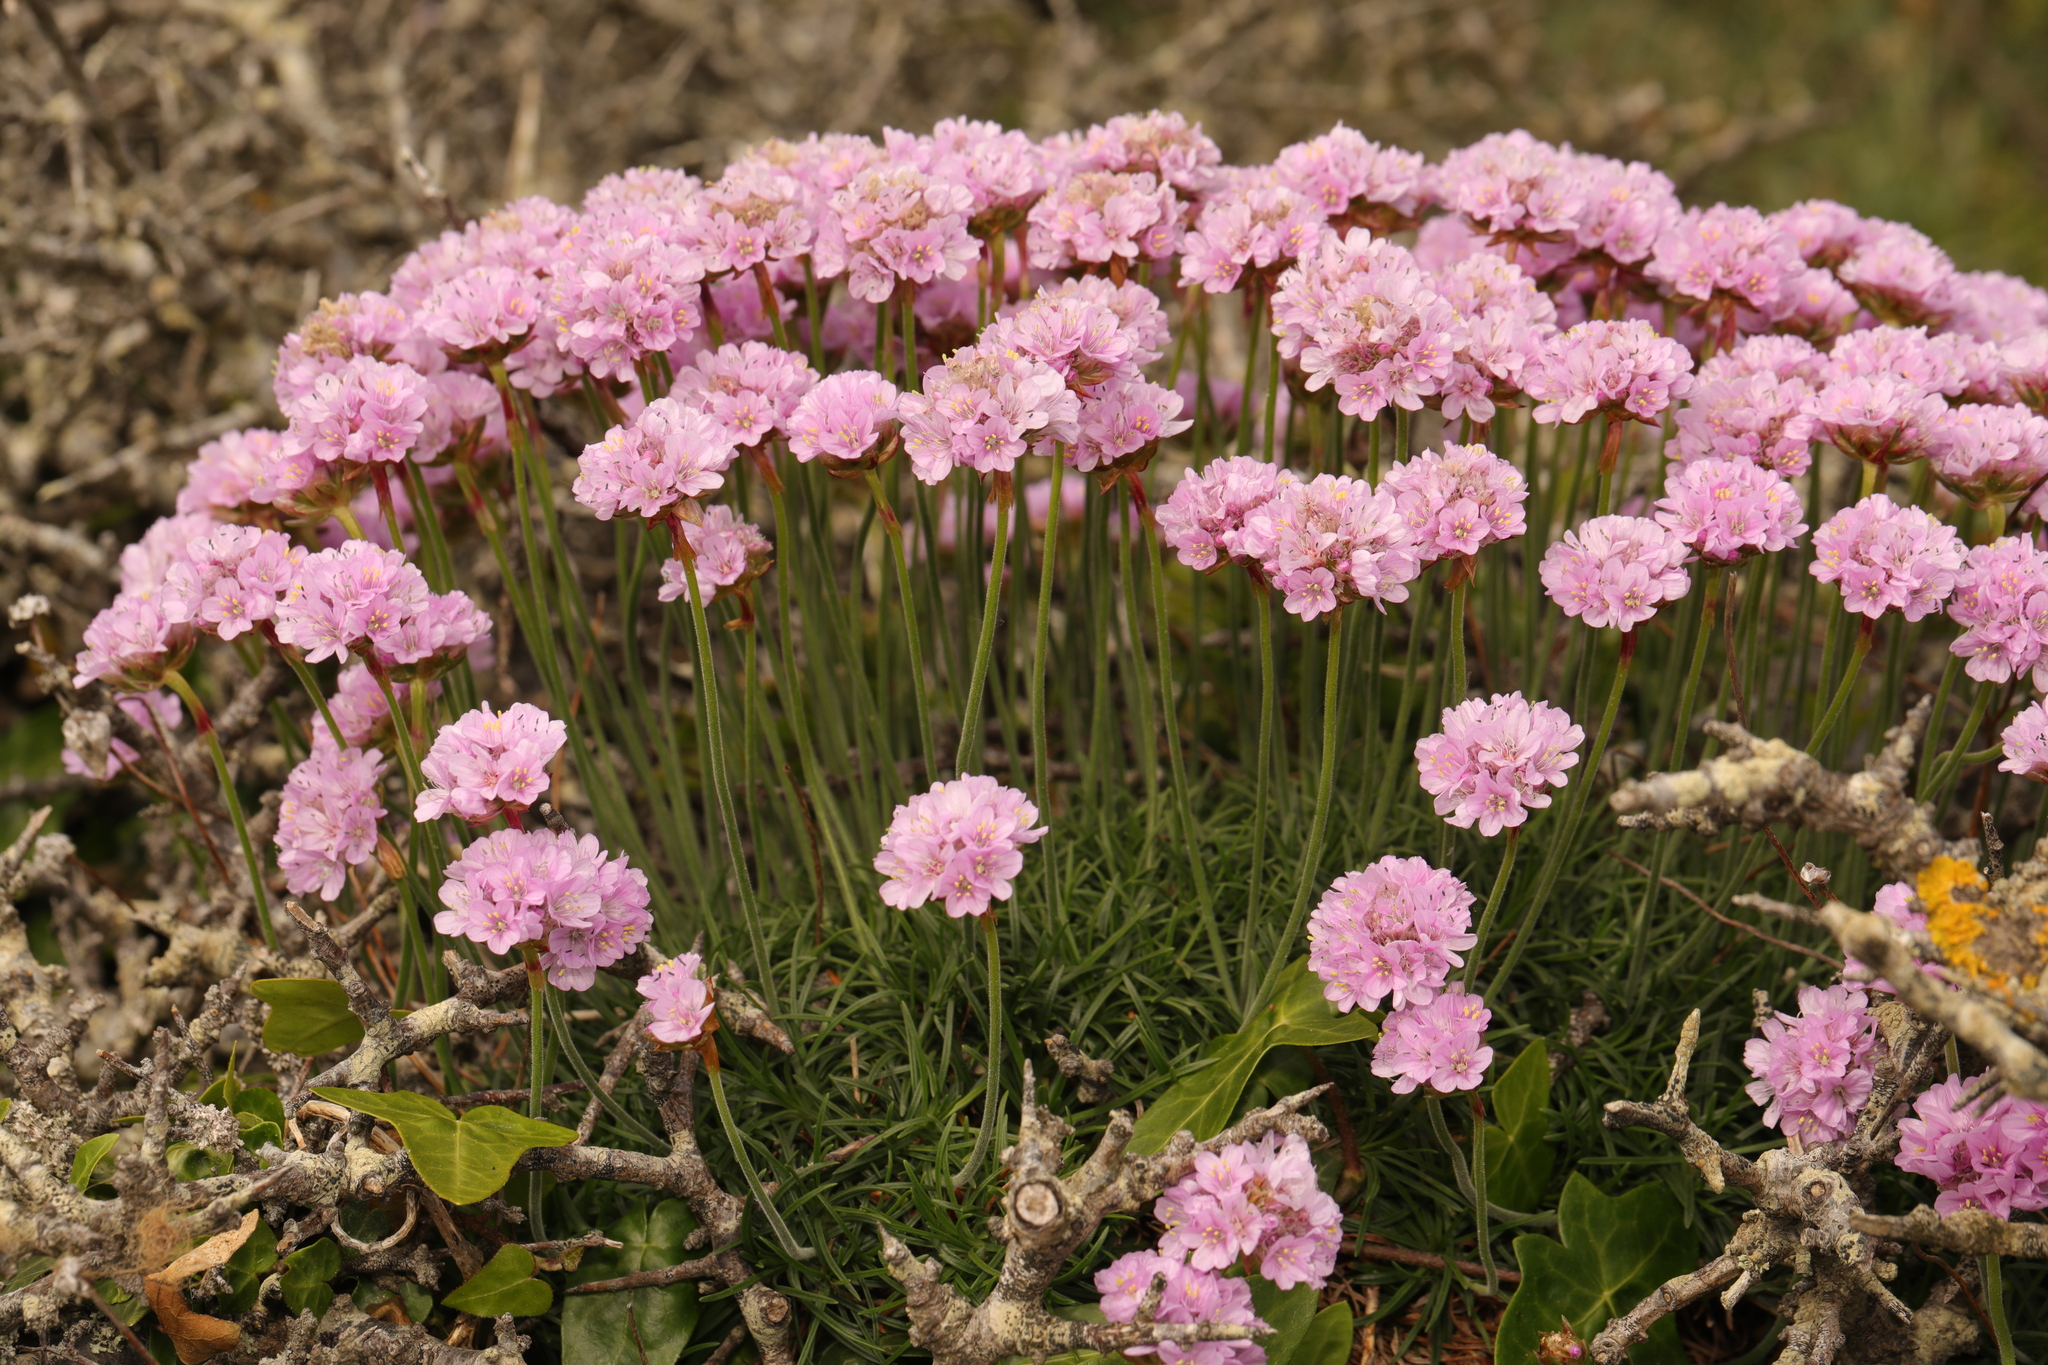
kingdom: Plantae
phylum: Tracheophyta
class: Magnoliopsida
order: Caryophyllales
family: Plumbaginaceae
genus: Armeria
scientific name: Armeria maritima
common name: Thrift
